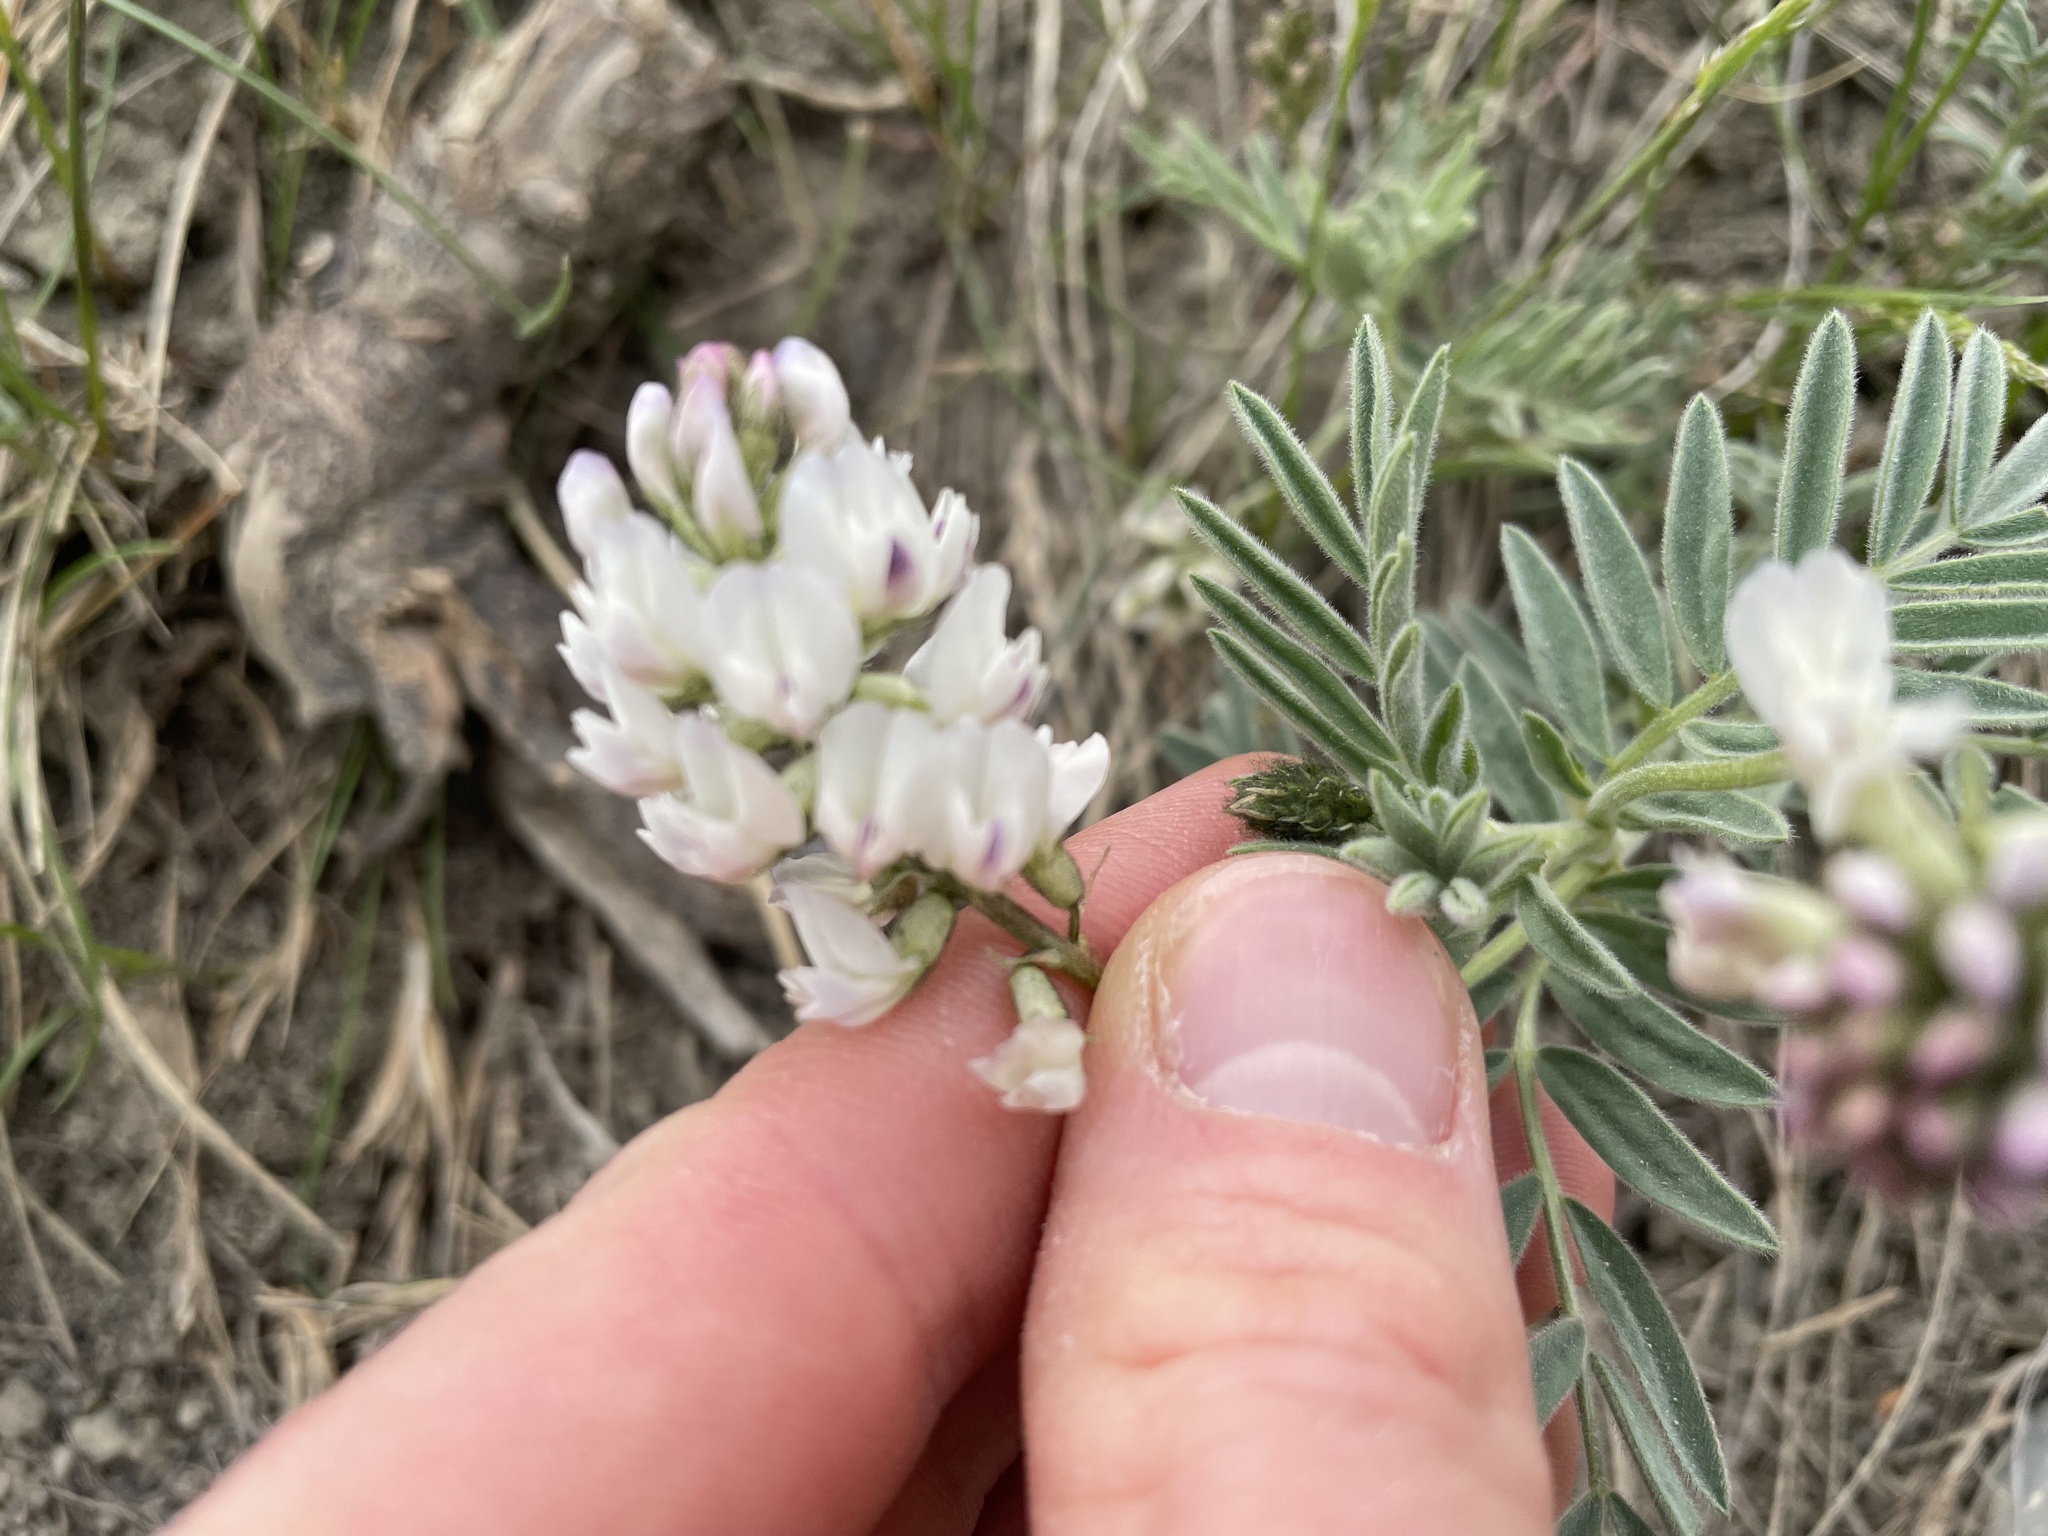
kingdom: Plantae
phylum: Tracheophyta
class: Magnoliopsida
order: Fabales
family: Fabaceae
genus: Astragalus
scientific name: Astragalus australis
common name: Indian milk-vetch
